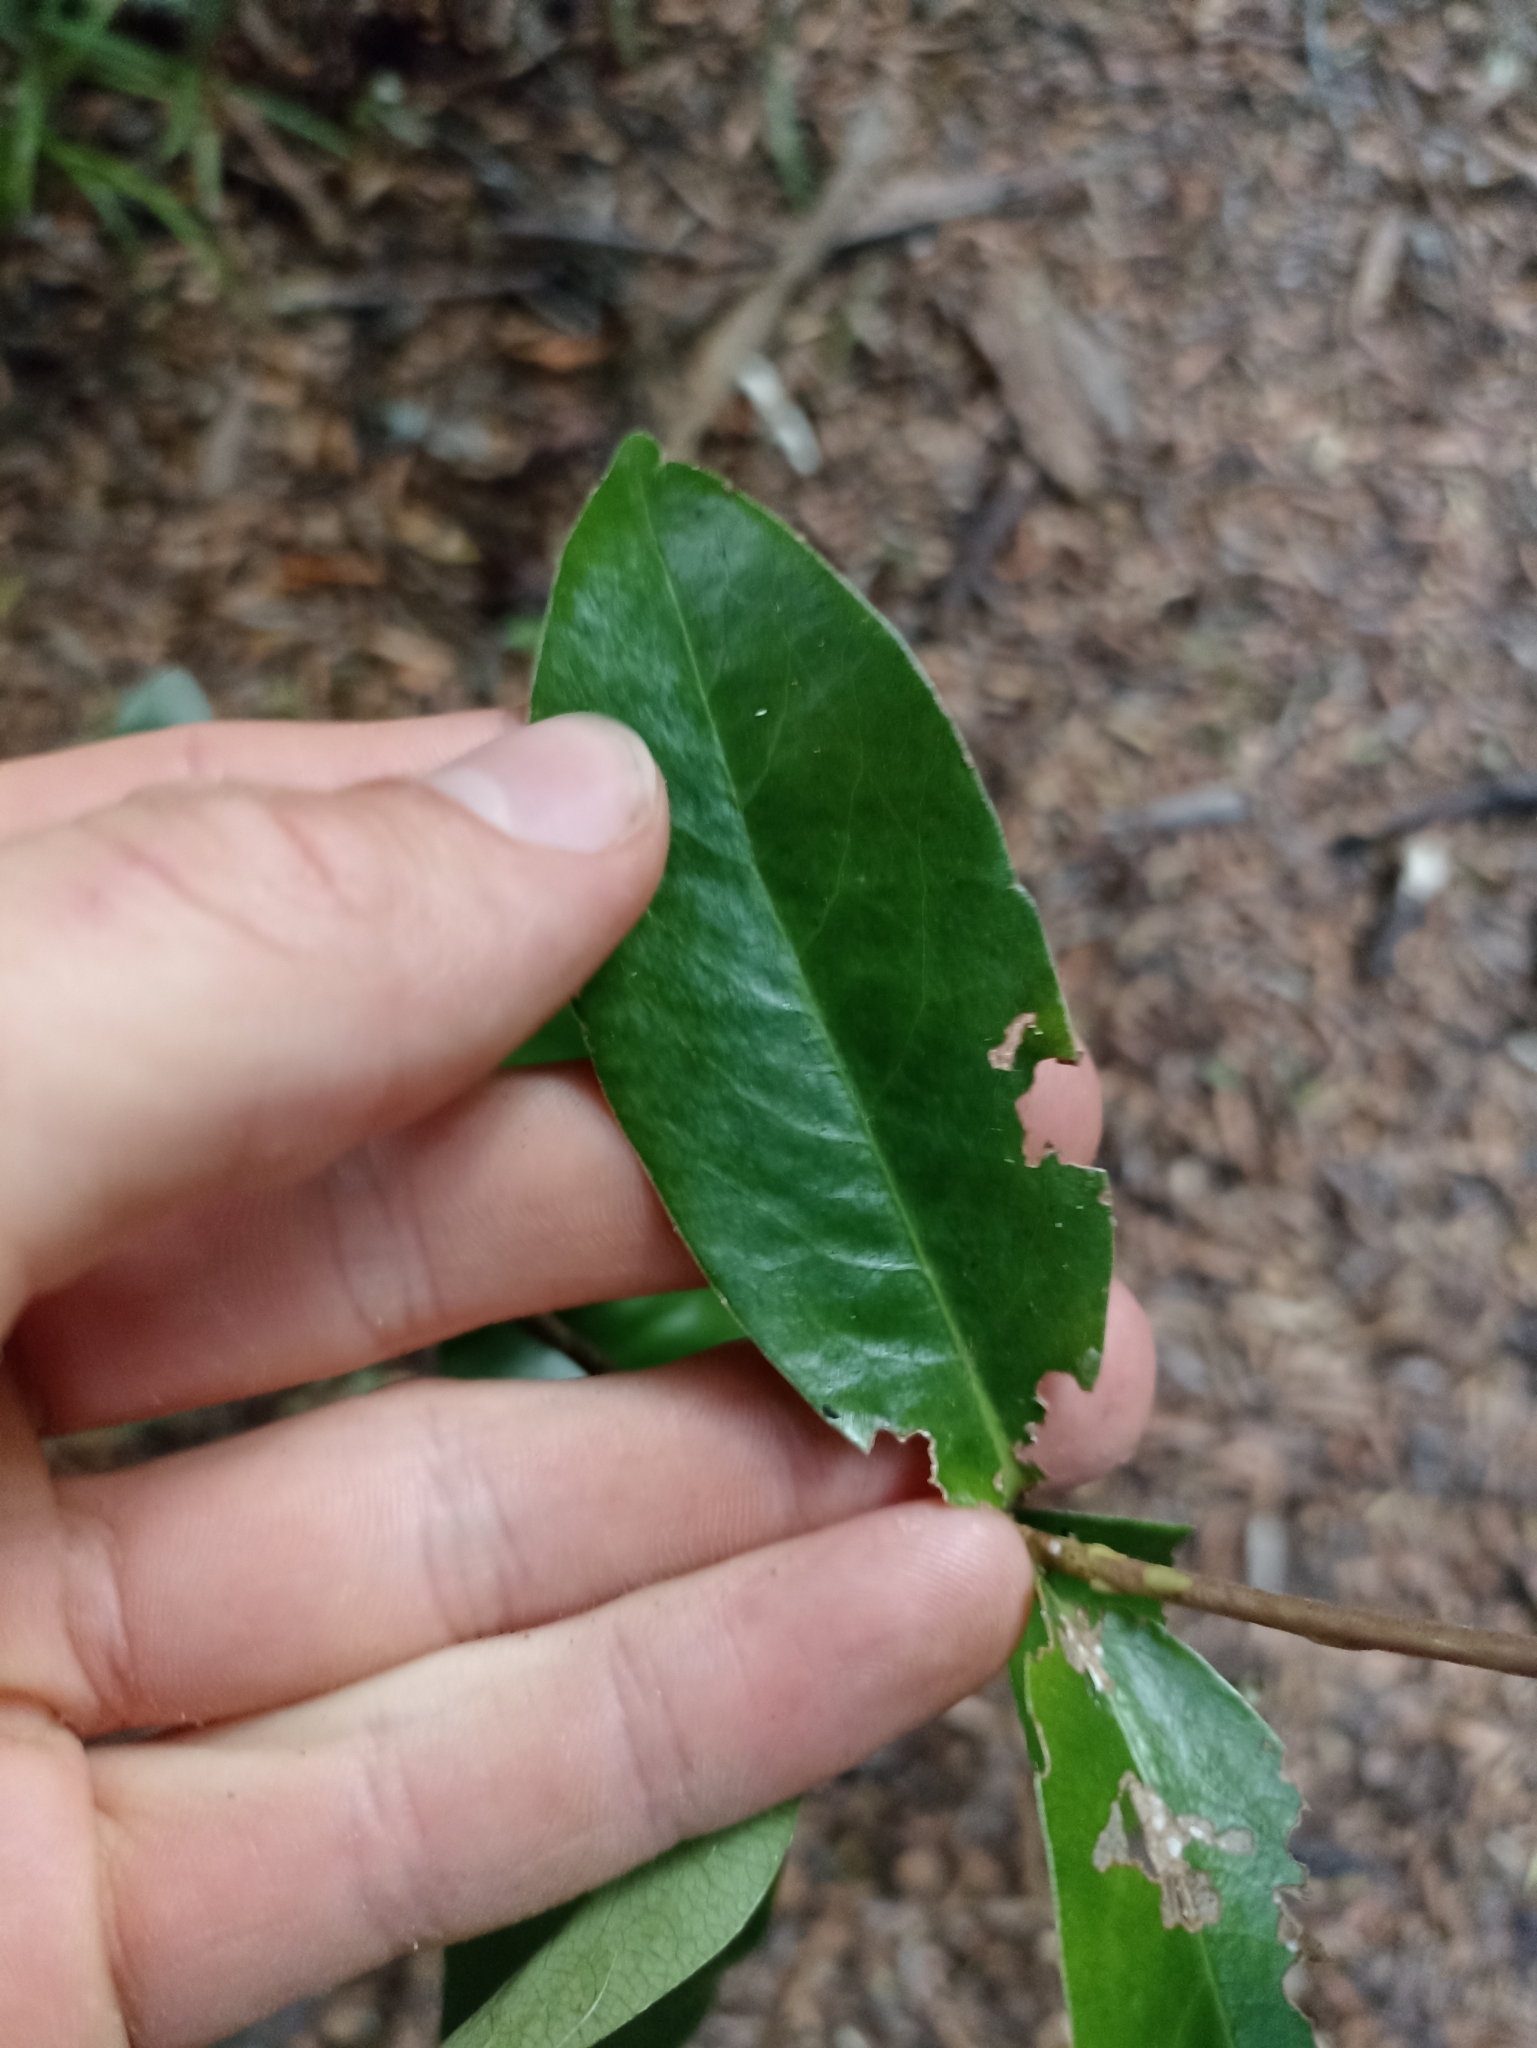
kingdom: Plantae
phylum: Tracheophyta
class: Magnoliopsida
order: Asterales
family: Alseuosmiaceae
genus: Alseuosmia
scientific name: Alseuosmia turneri
